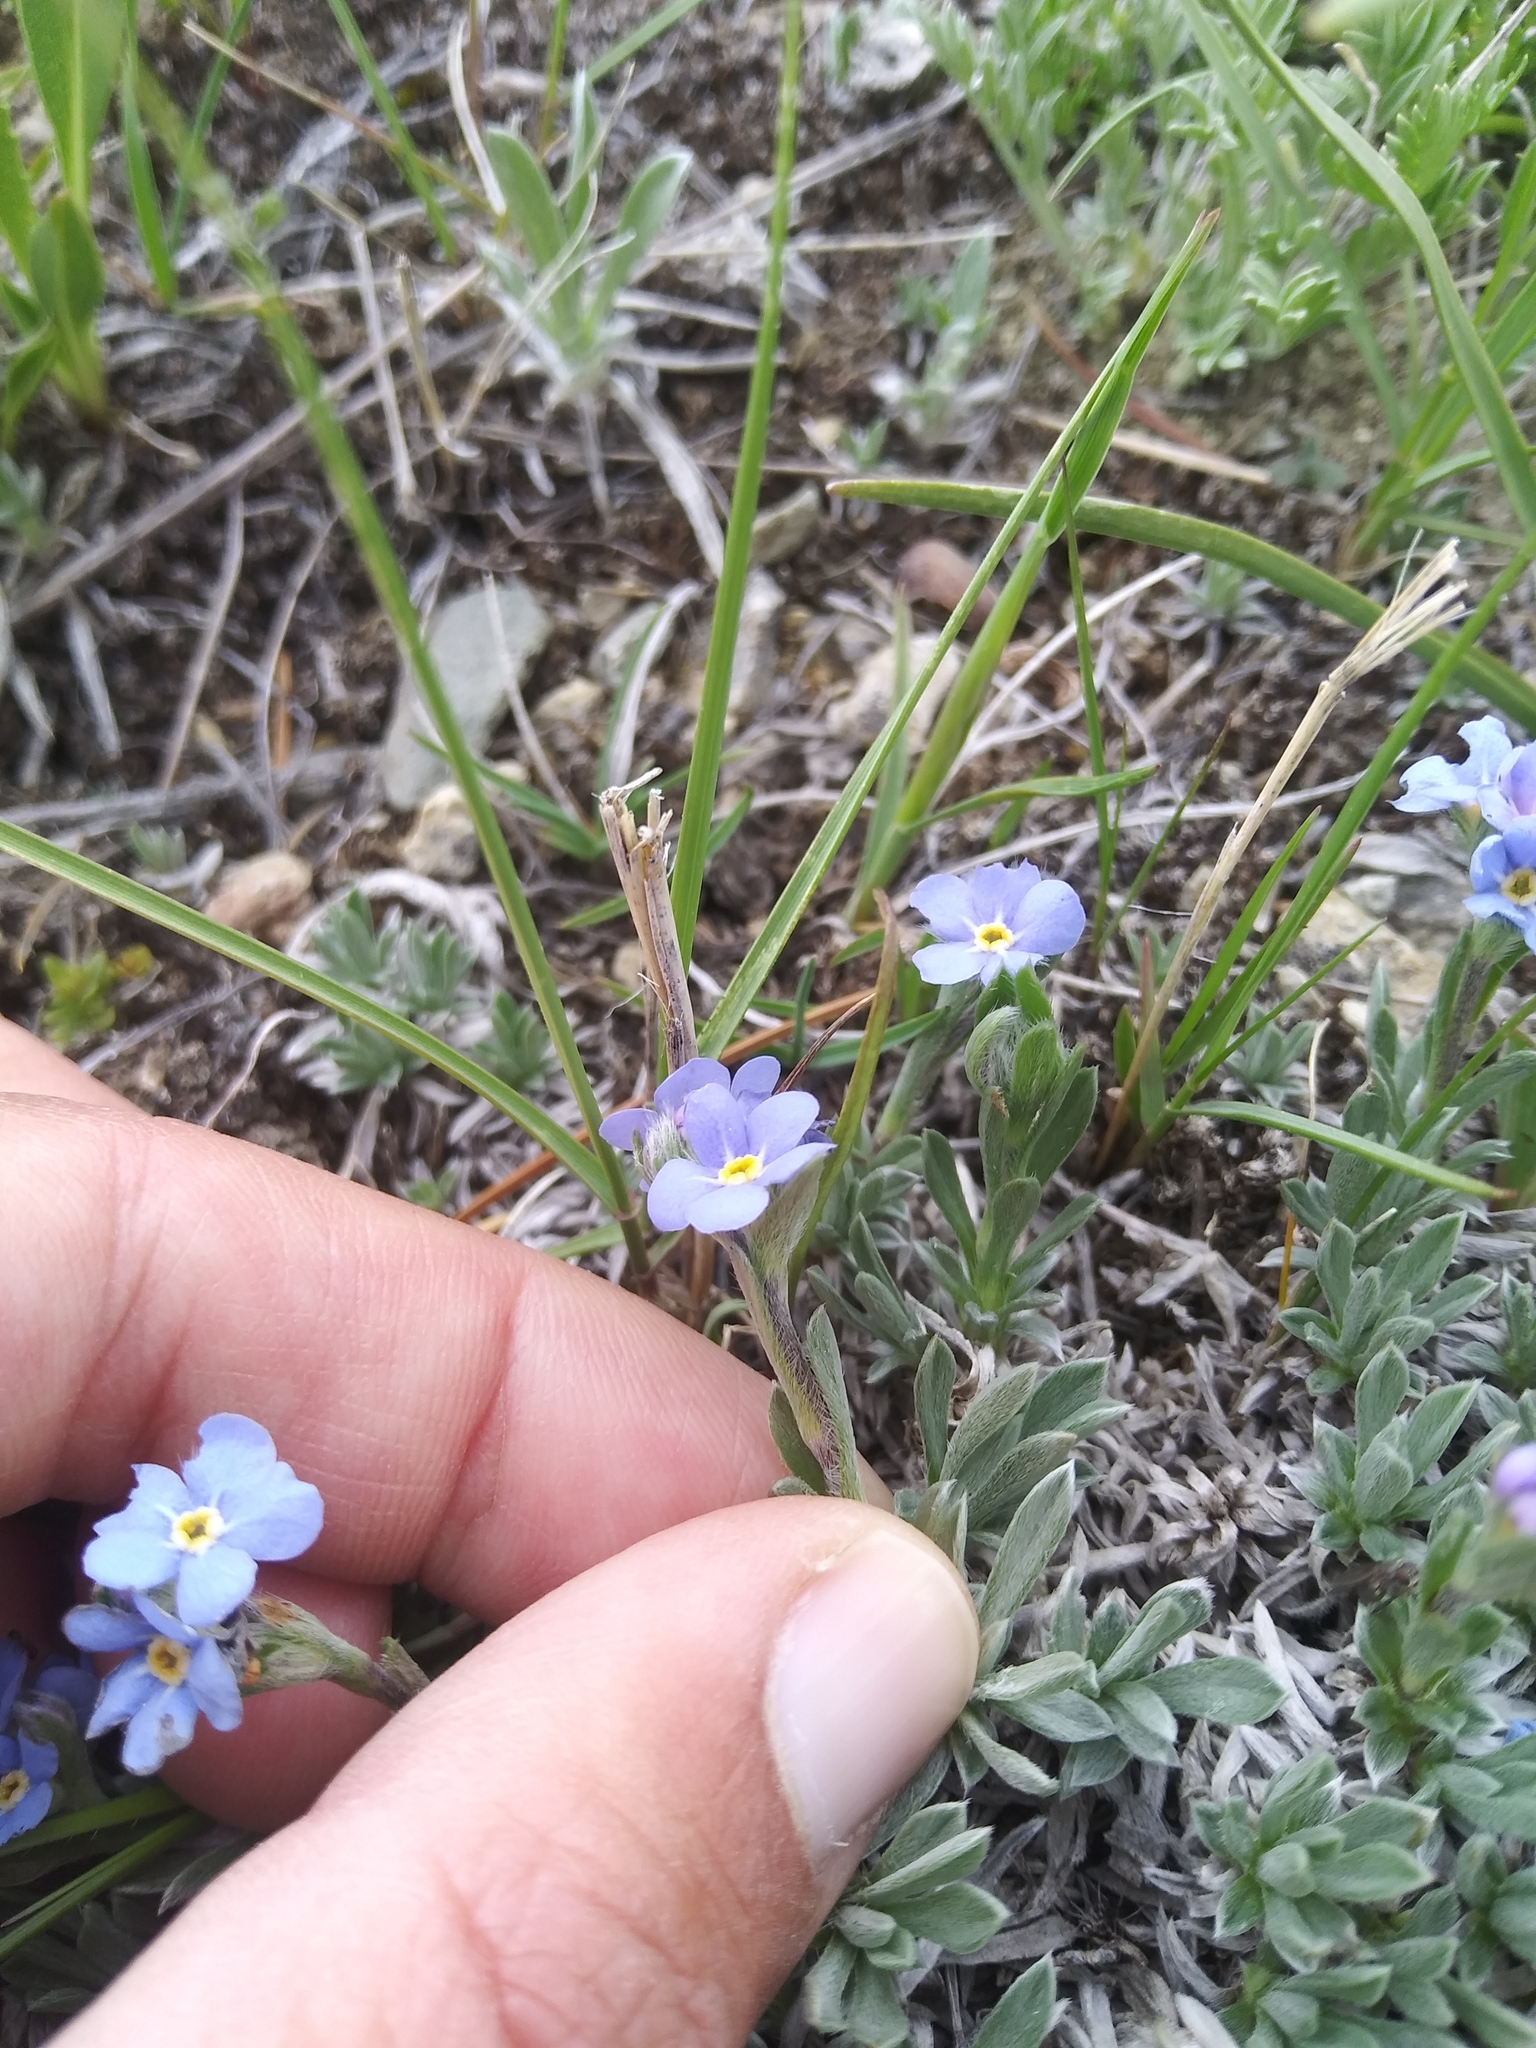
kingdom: Plantae
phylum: Tracheophyta
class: Magnoliopsida
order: Boraginales
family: Boraginaceae
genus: Eritrichium
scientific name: Eritrichium howardii
